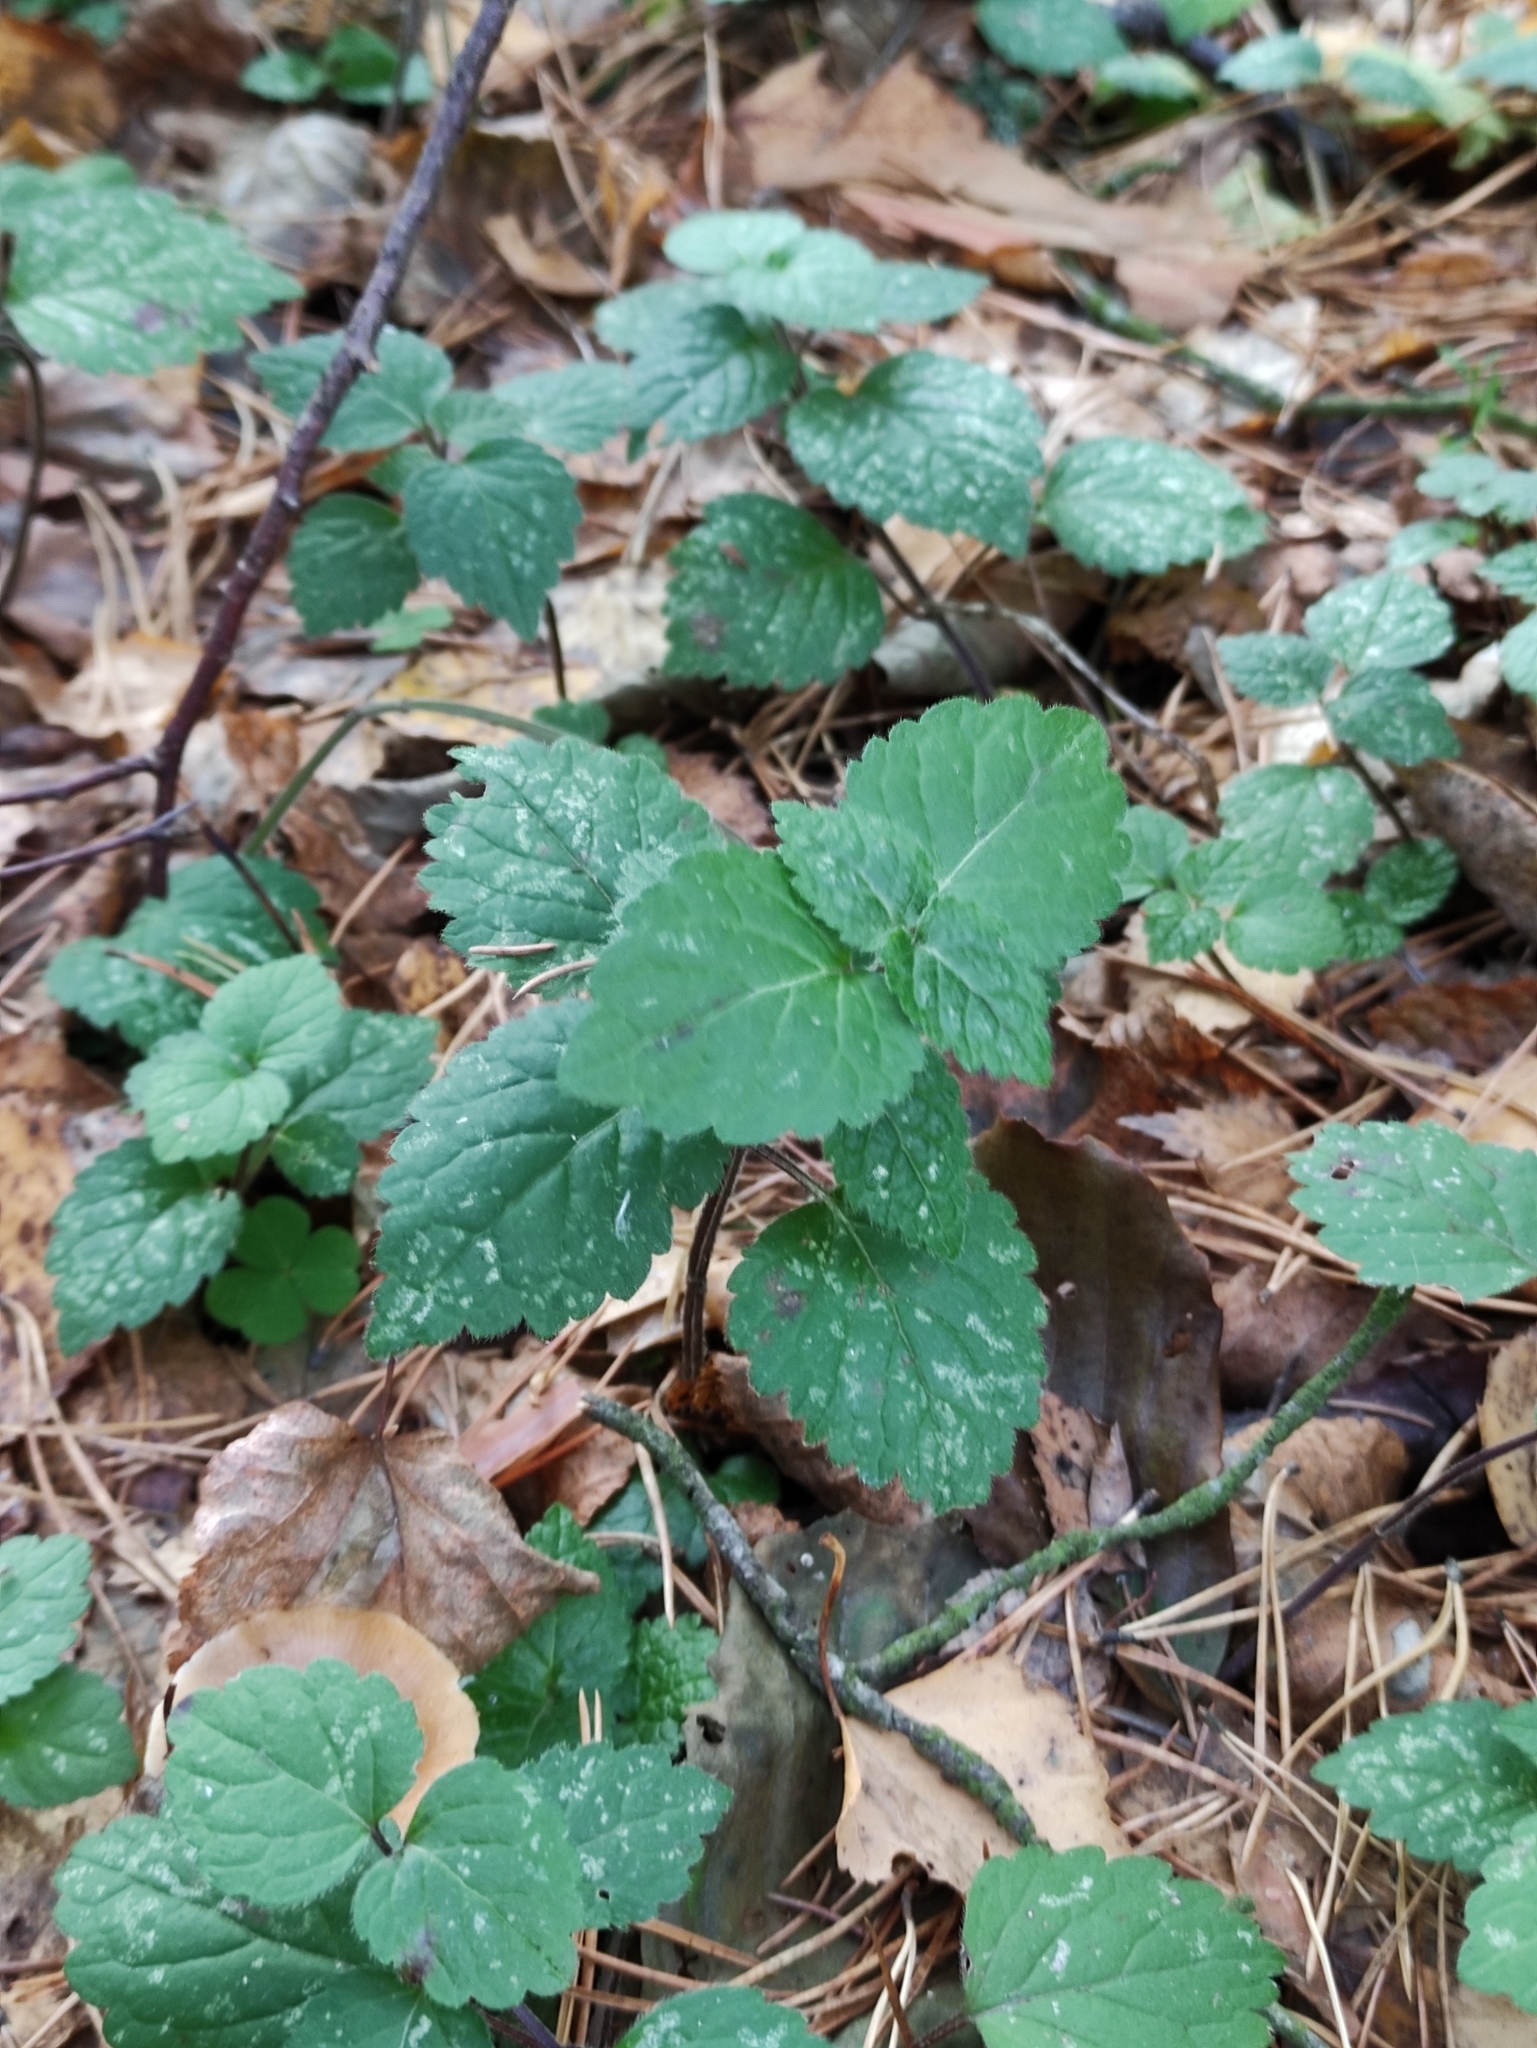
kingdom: Plantae
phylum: Tracheophyta
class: Magnoliopsida
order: Lamiales
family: Lamiaceae
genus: Lamium
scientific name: Lamium galeobdolon
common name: Yellow archangel
